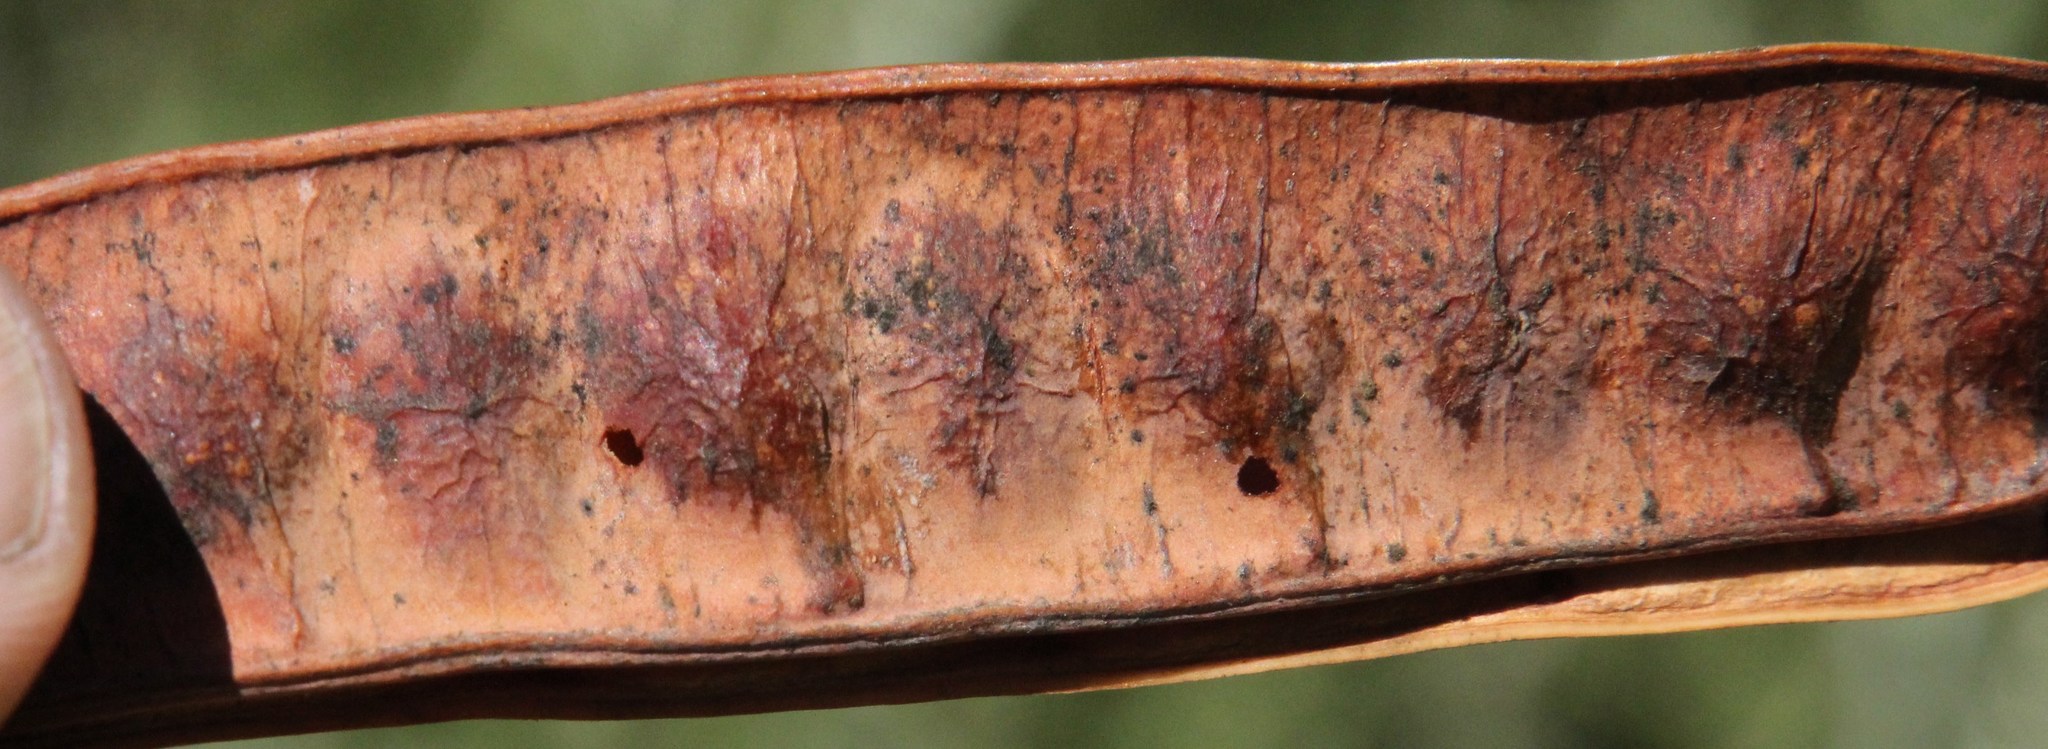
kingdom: Plantae
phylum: Tracheophyta
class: Magnoliopsida
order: Fabales
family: Fabaceae
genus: Paraserianthes
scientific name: Paraserianthes lophantha
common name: Plume albizia
